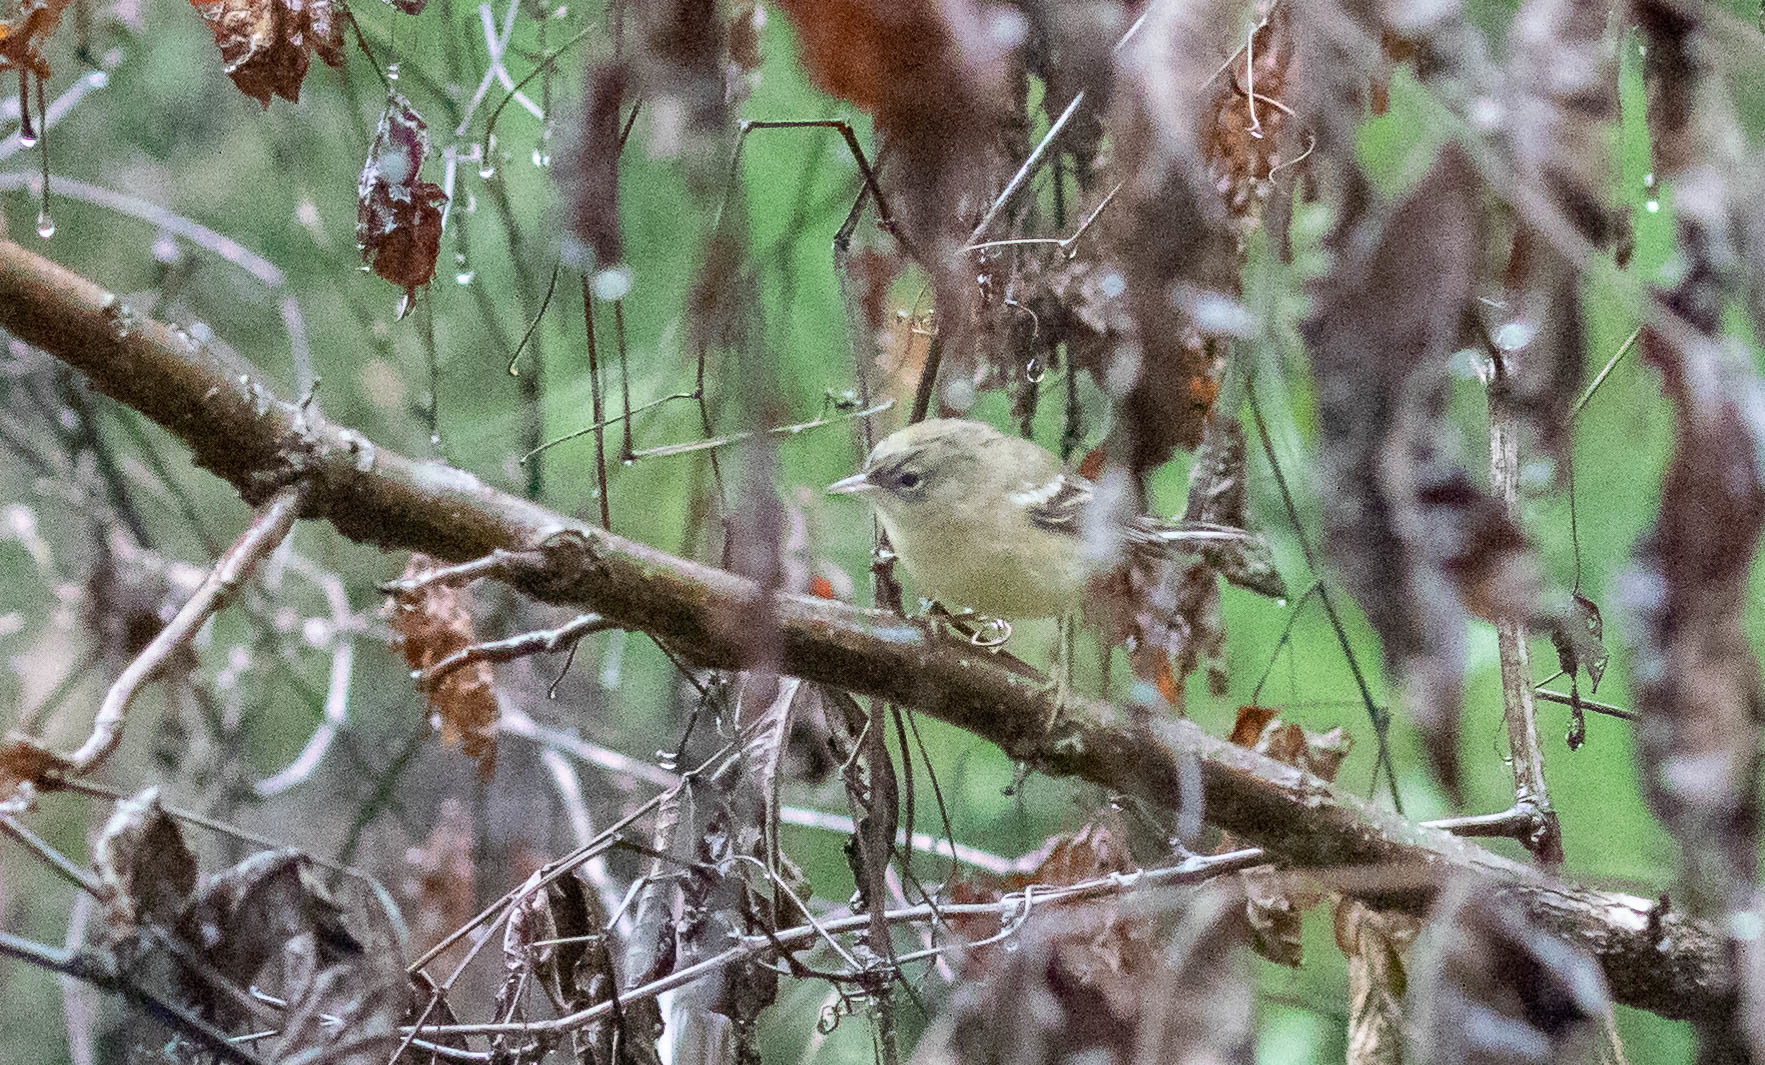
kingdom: Animalia
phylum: Chordata
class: Aves
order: Passeriformes
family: Parulidae
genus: Setophaga
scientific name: Setophaga pinus
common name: Pine warbler
